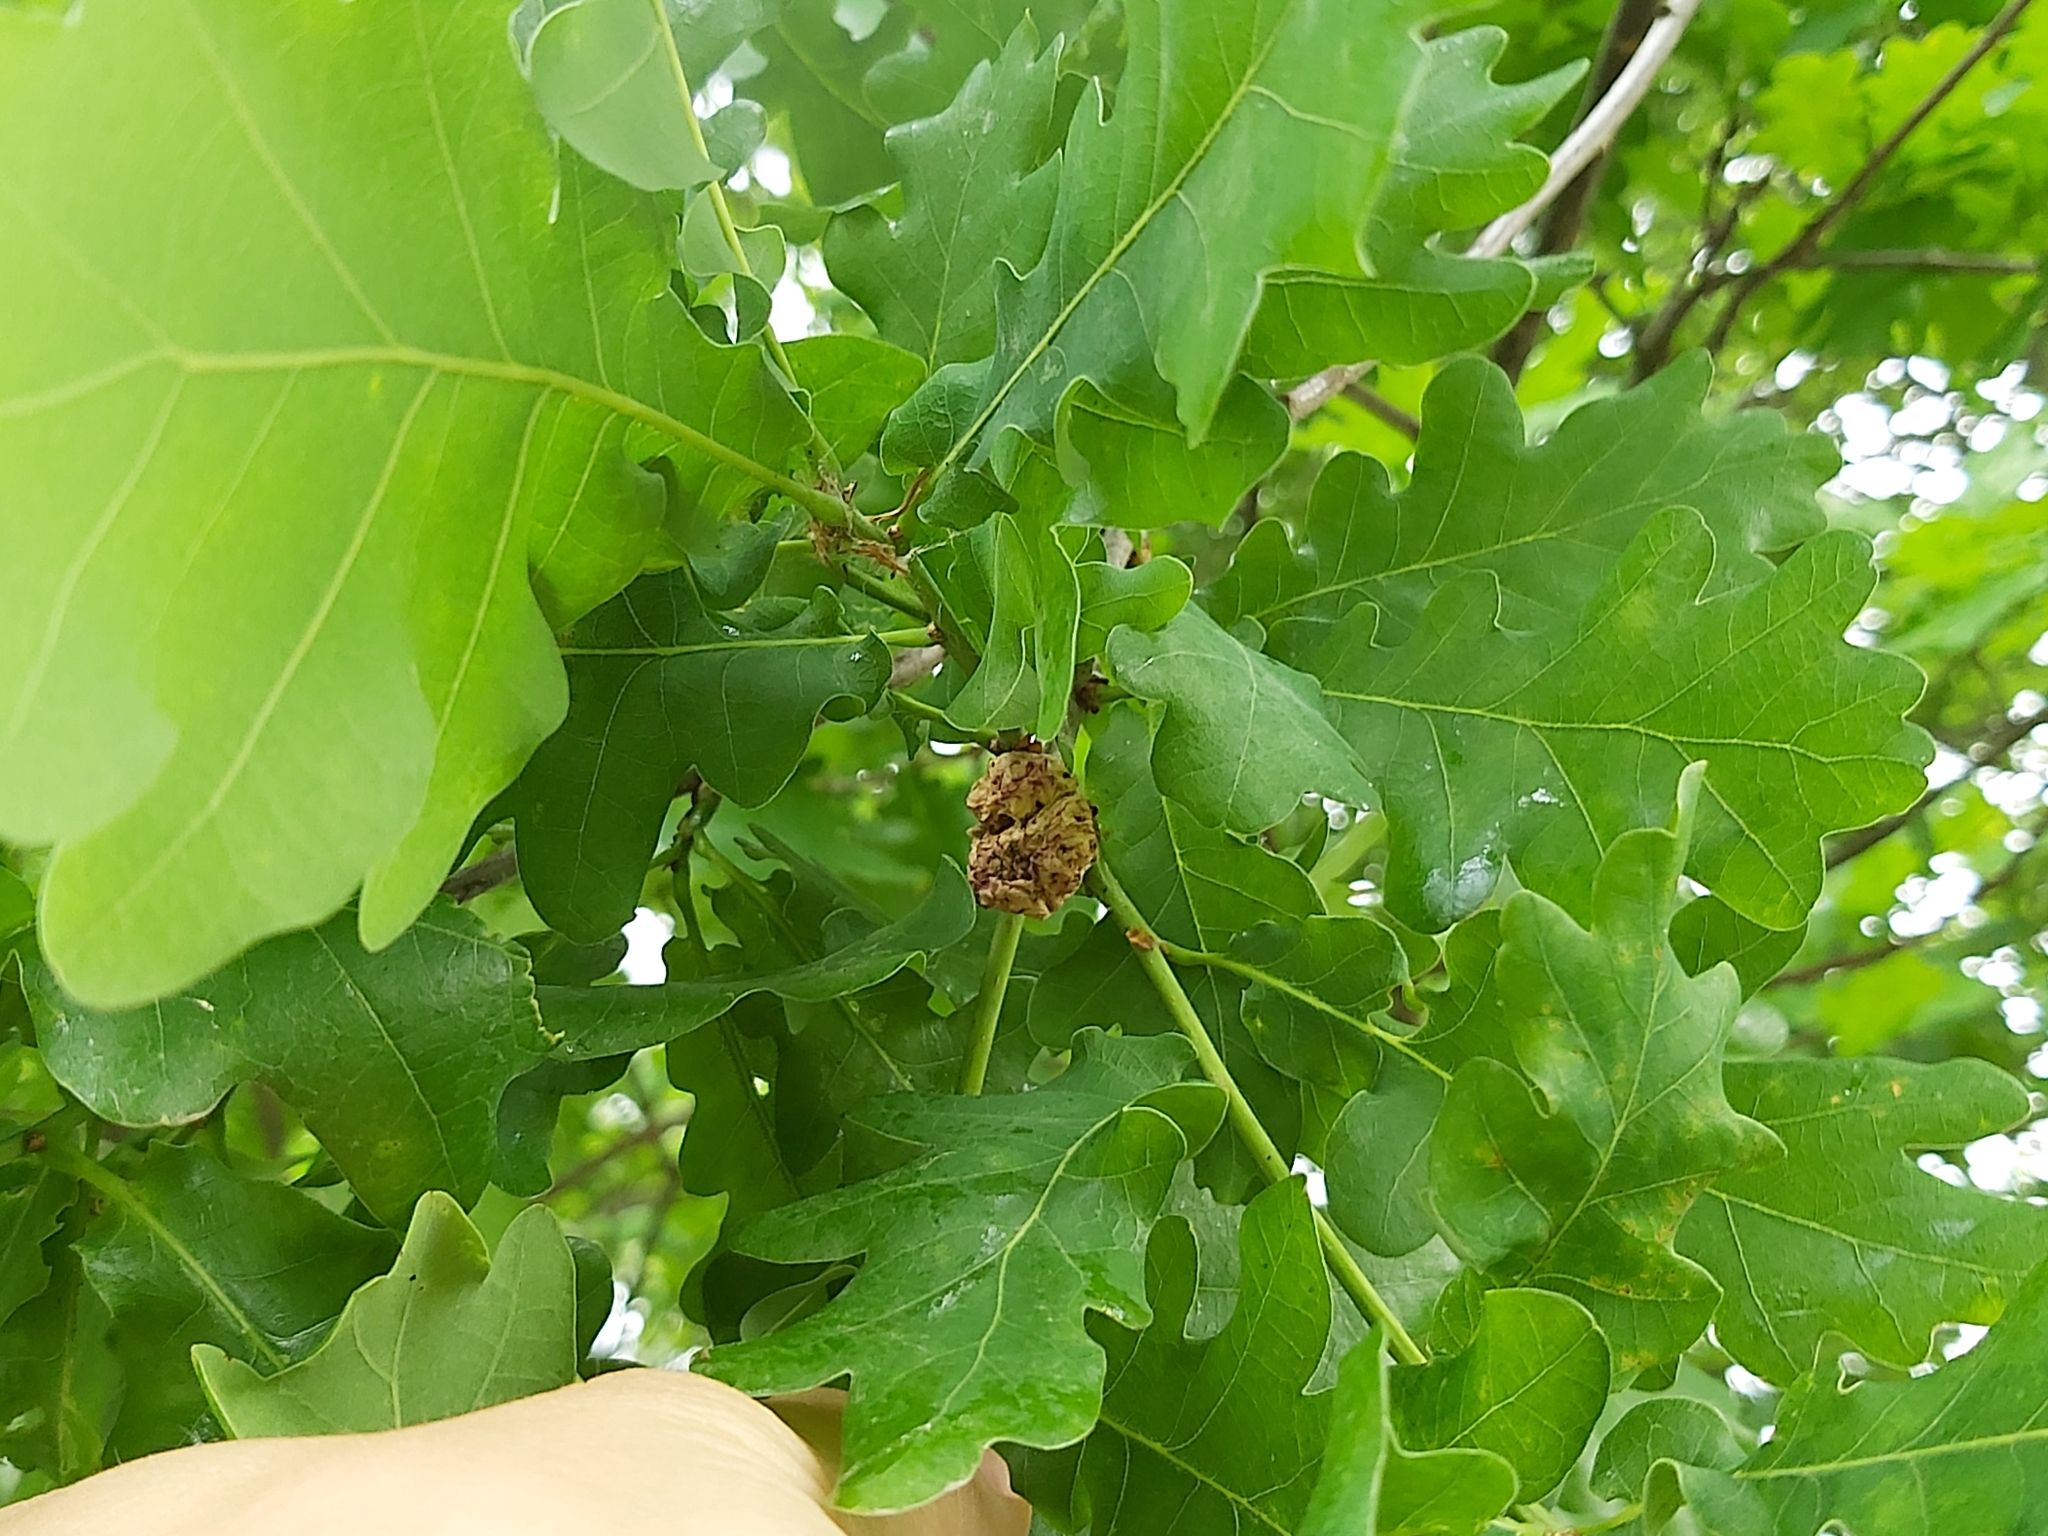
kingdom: Animalia
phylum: Arthropoda
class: Insecta
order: Hymenoptera
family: Cynipidae
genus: Biorhiza
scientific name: Biorhiza pallida
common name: Oak apple
